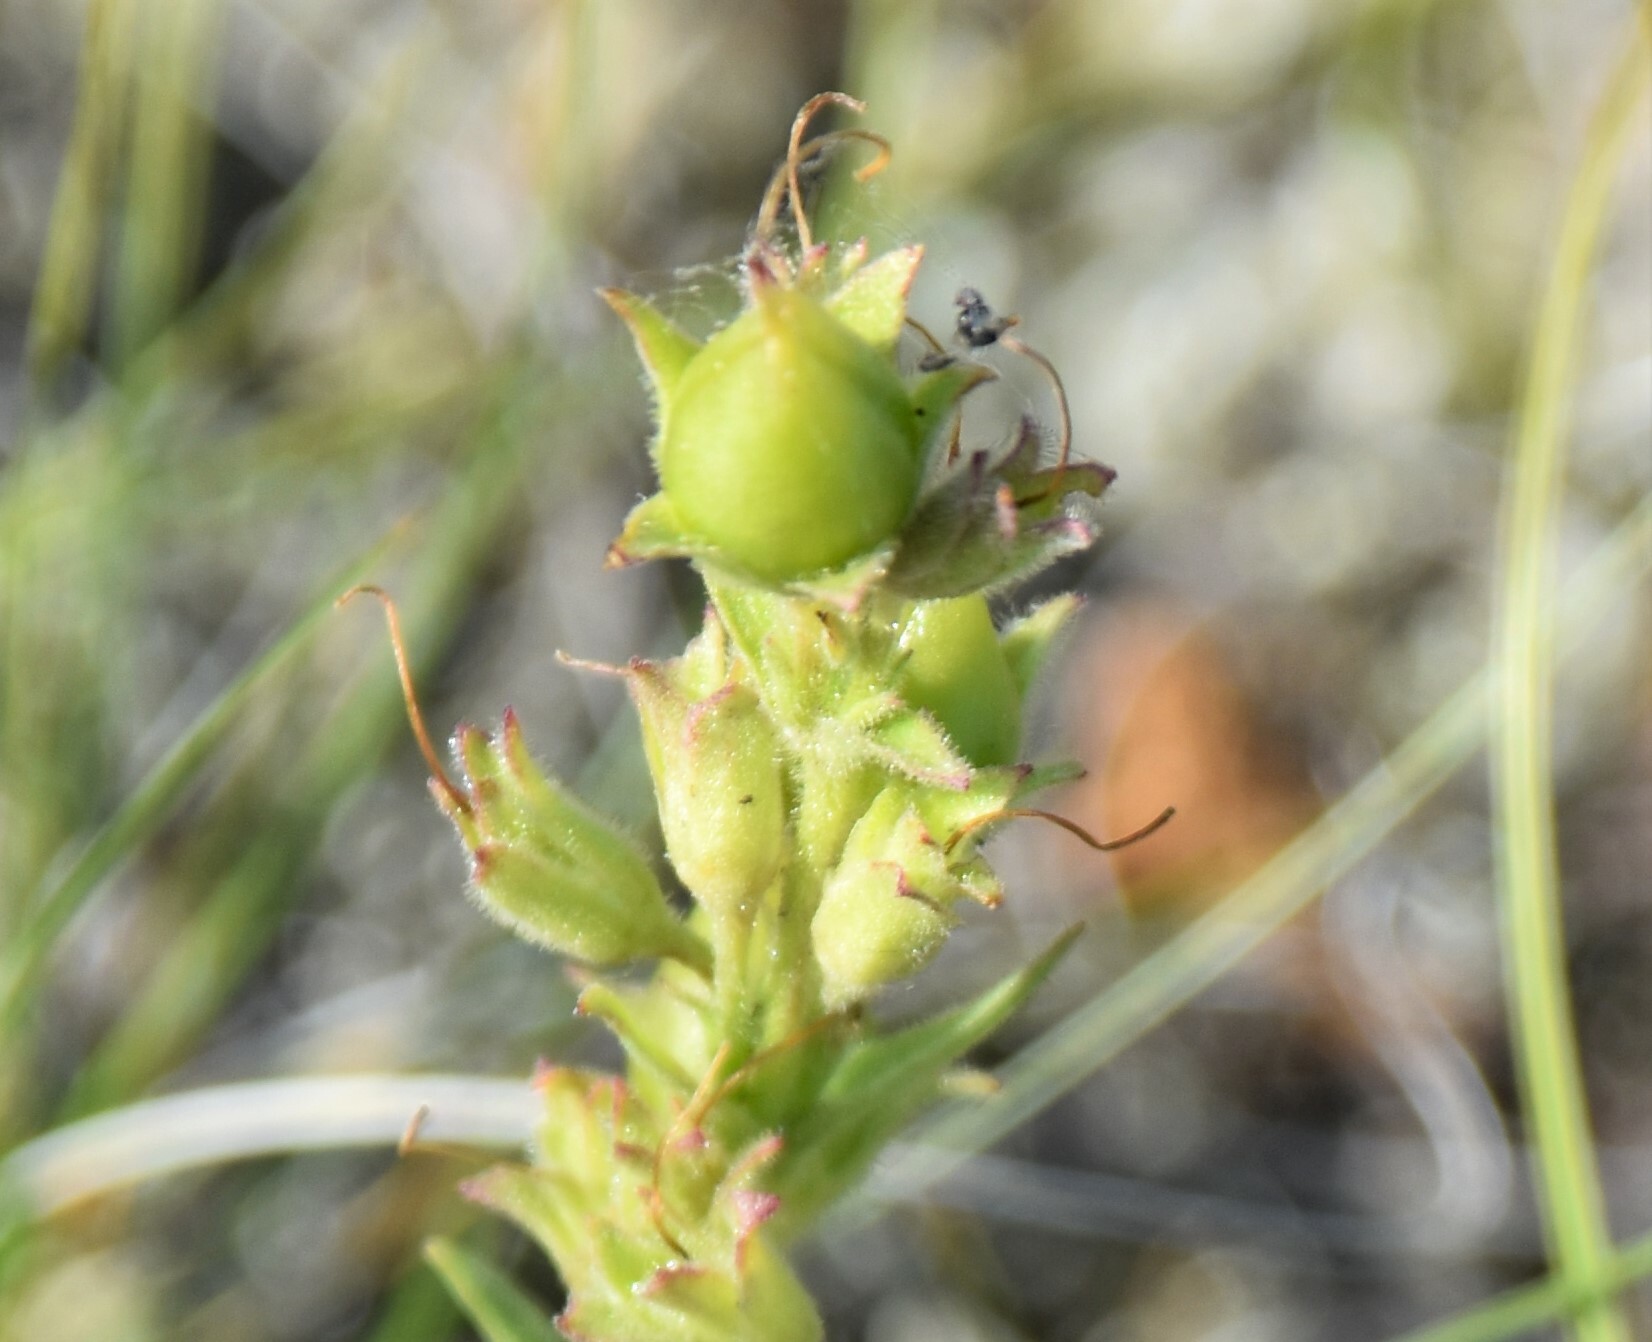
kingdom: Plantae
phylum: Tracheophyta
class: Magnoliopsida
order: Lamiales
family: Plantaginaceae
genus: Penstemon
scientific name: Penstemon albidus
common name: White beardtongue
